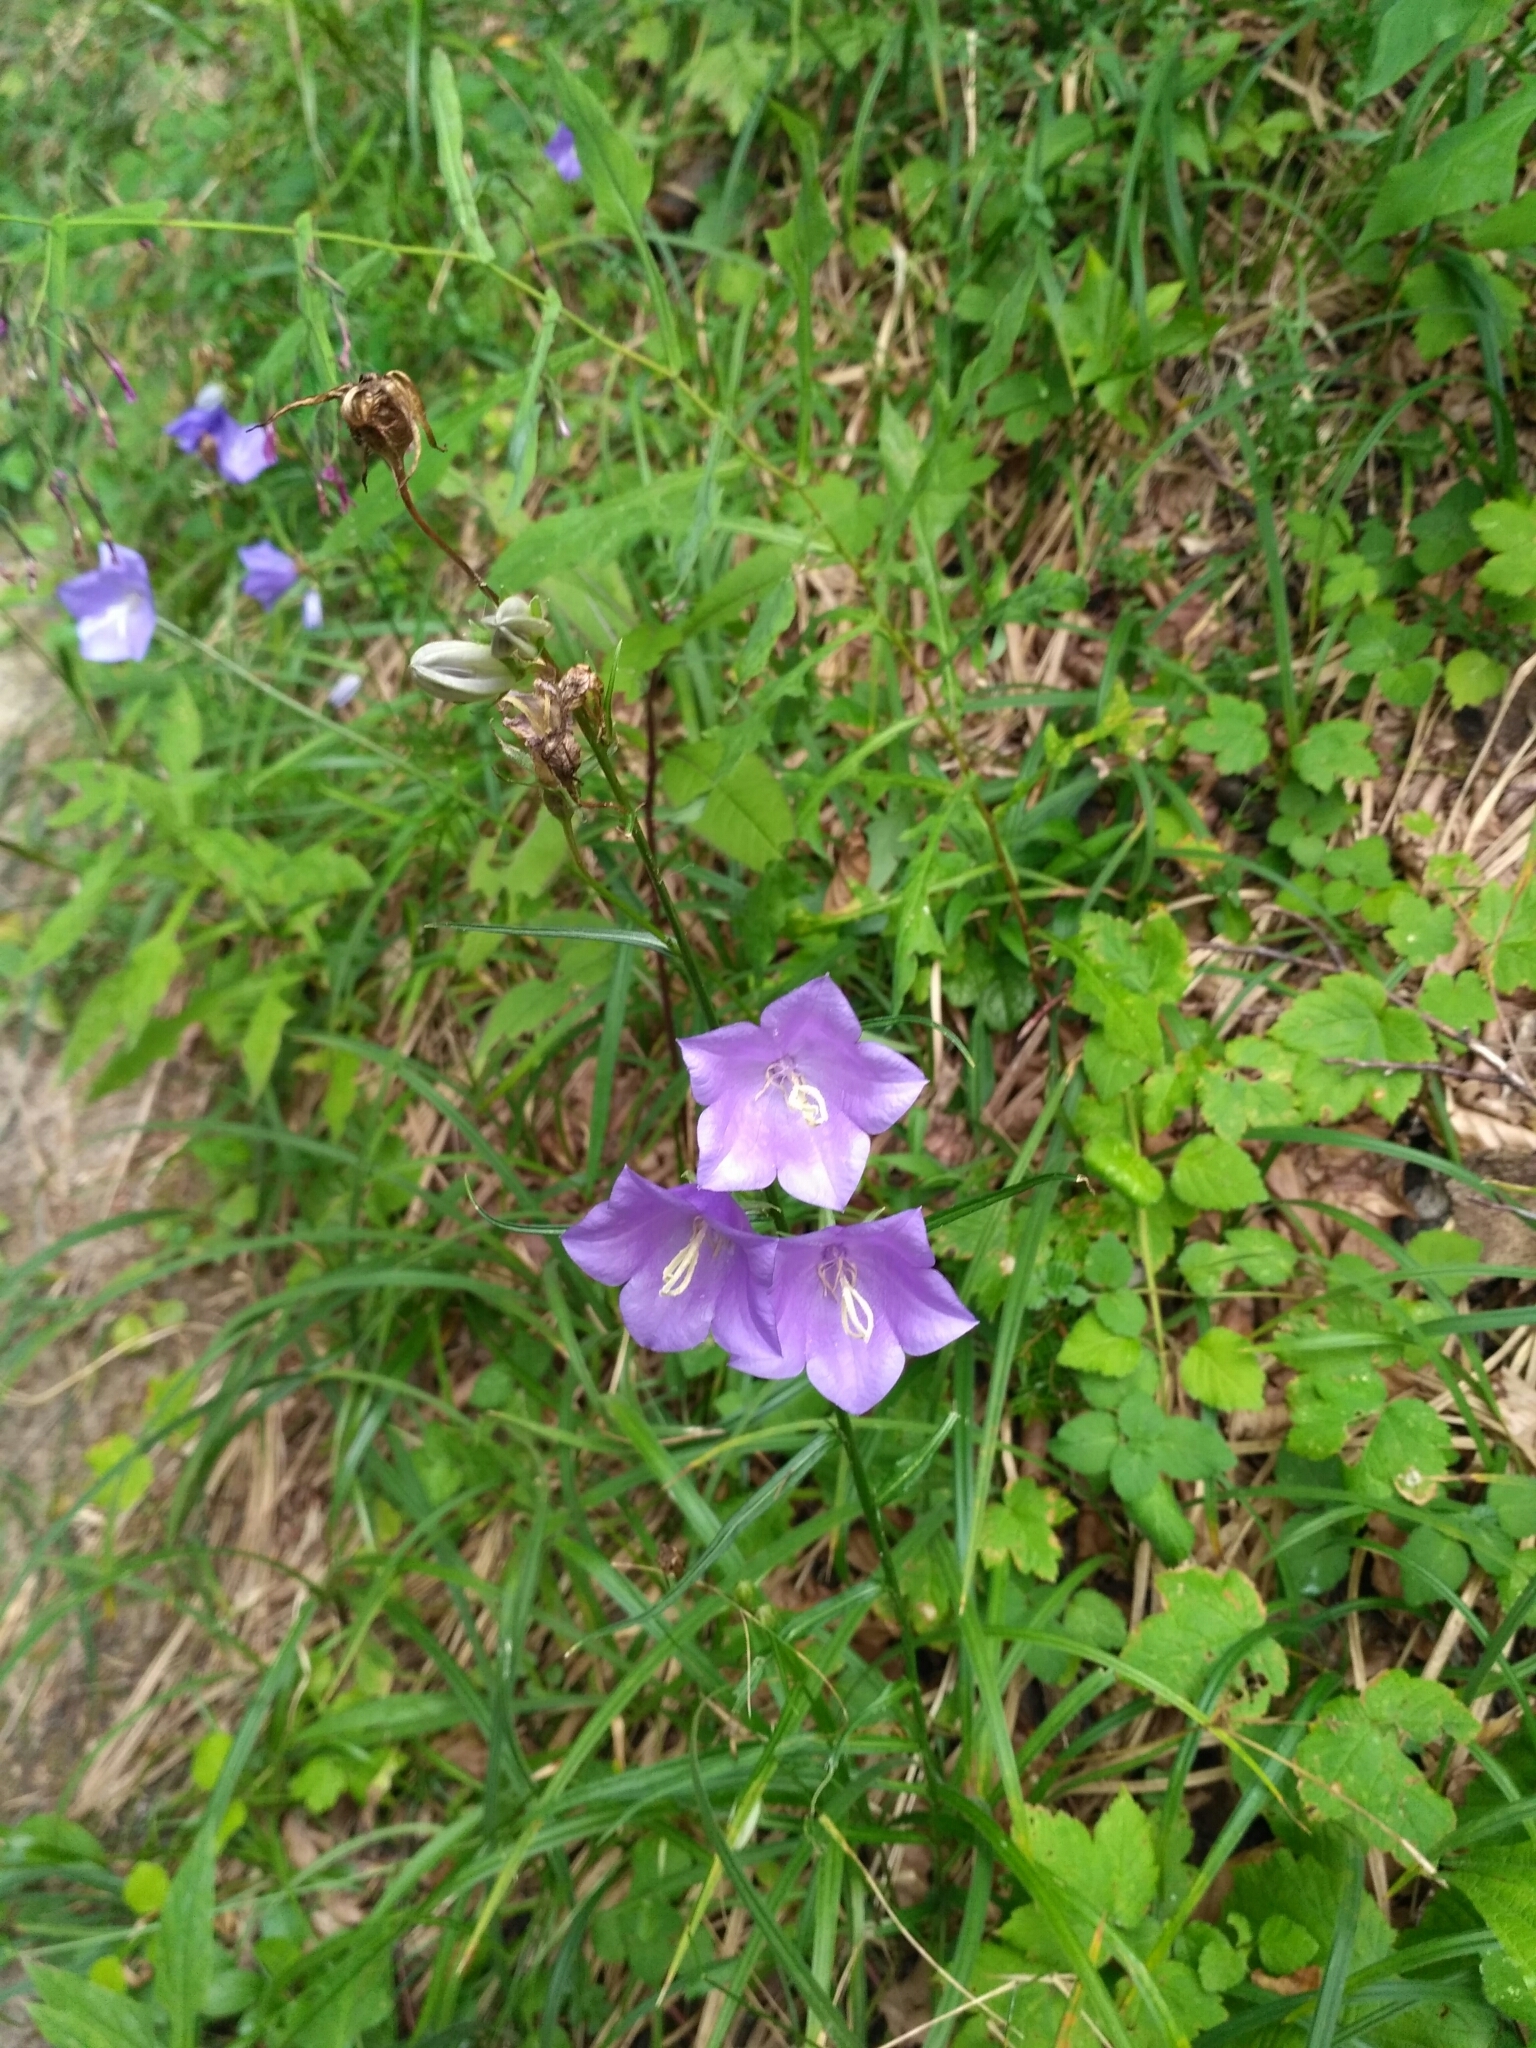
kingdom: Plantae
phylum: Tracheophyta
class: Magnoliopsida
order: Asterales
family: Campanulaceae
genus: Campanula
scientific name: Campanula persicifolia
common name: Peach-leaved bellflower
